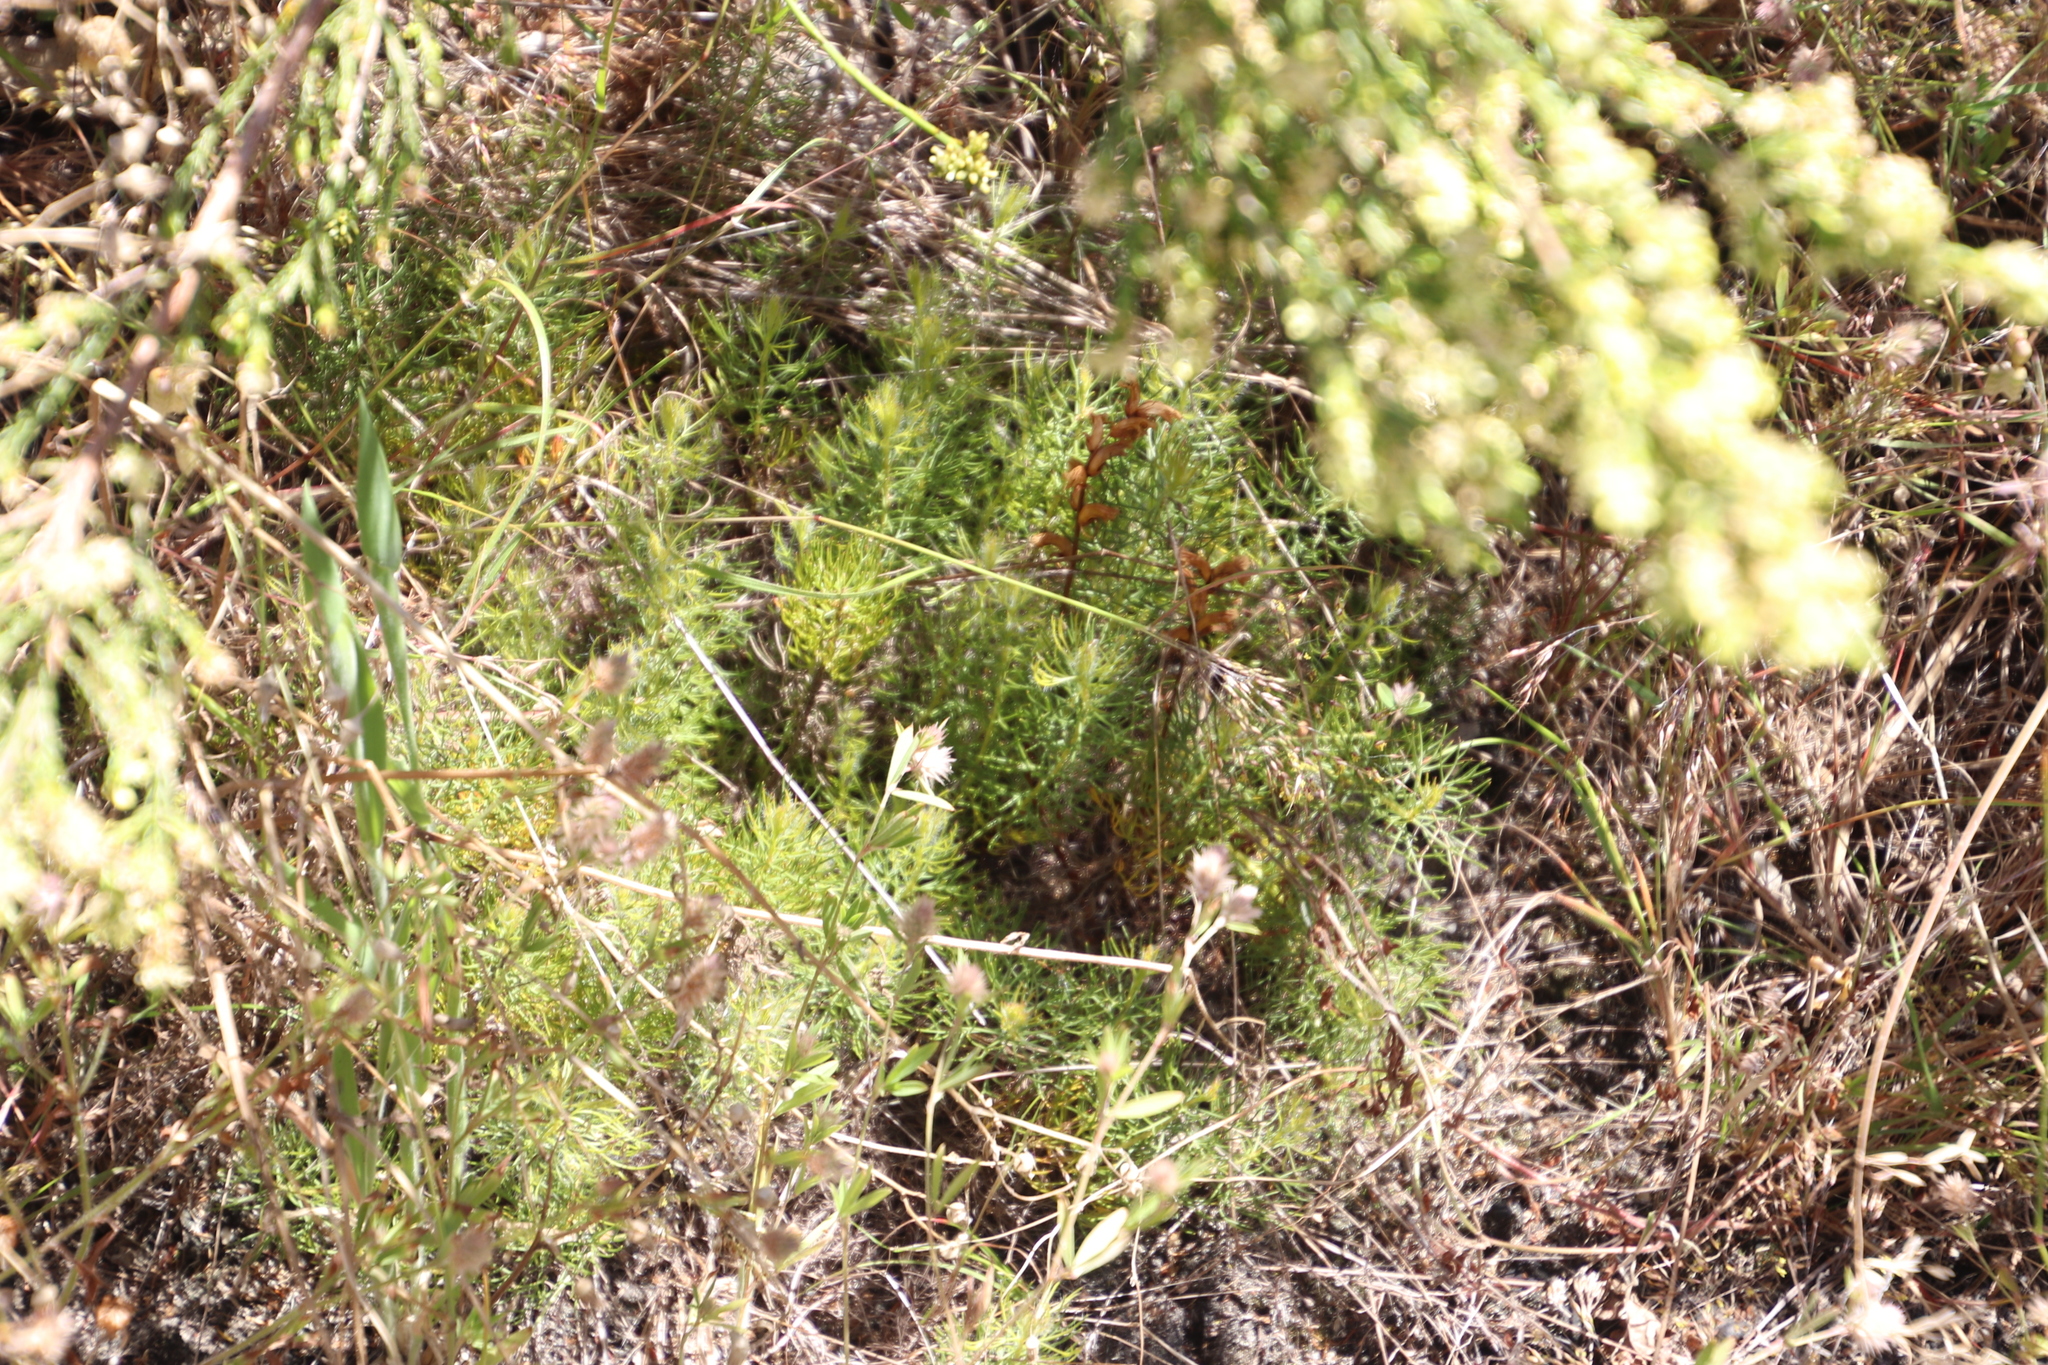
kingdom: Plantae
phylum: Tracheophyta
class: Magnoliopsida
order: Proteales
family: Proteaceae
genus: Serruria
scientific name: Serruria cyanoides
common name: Wynberg spiderhead
